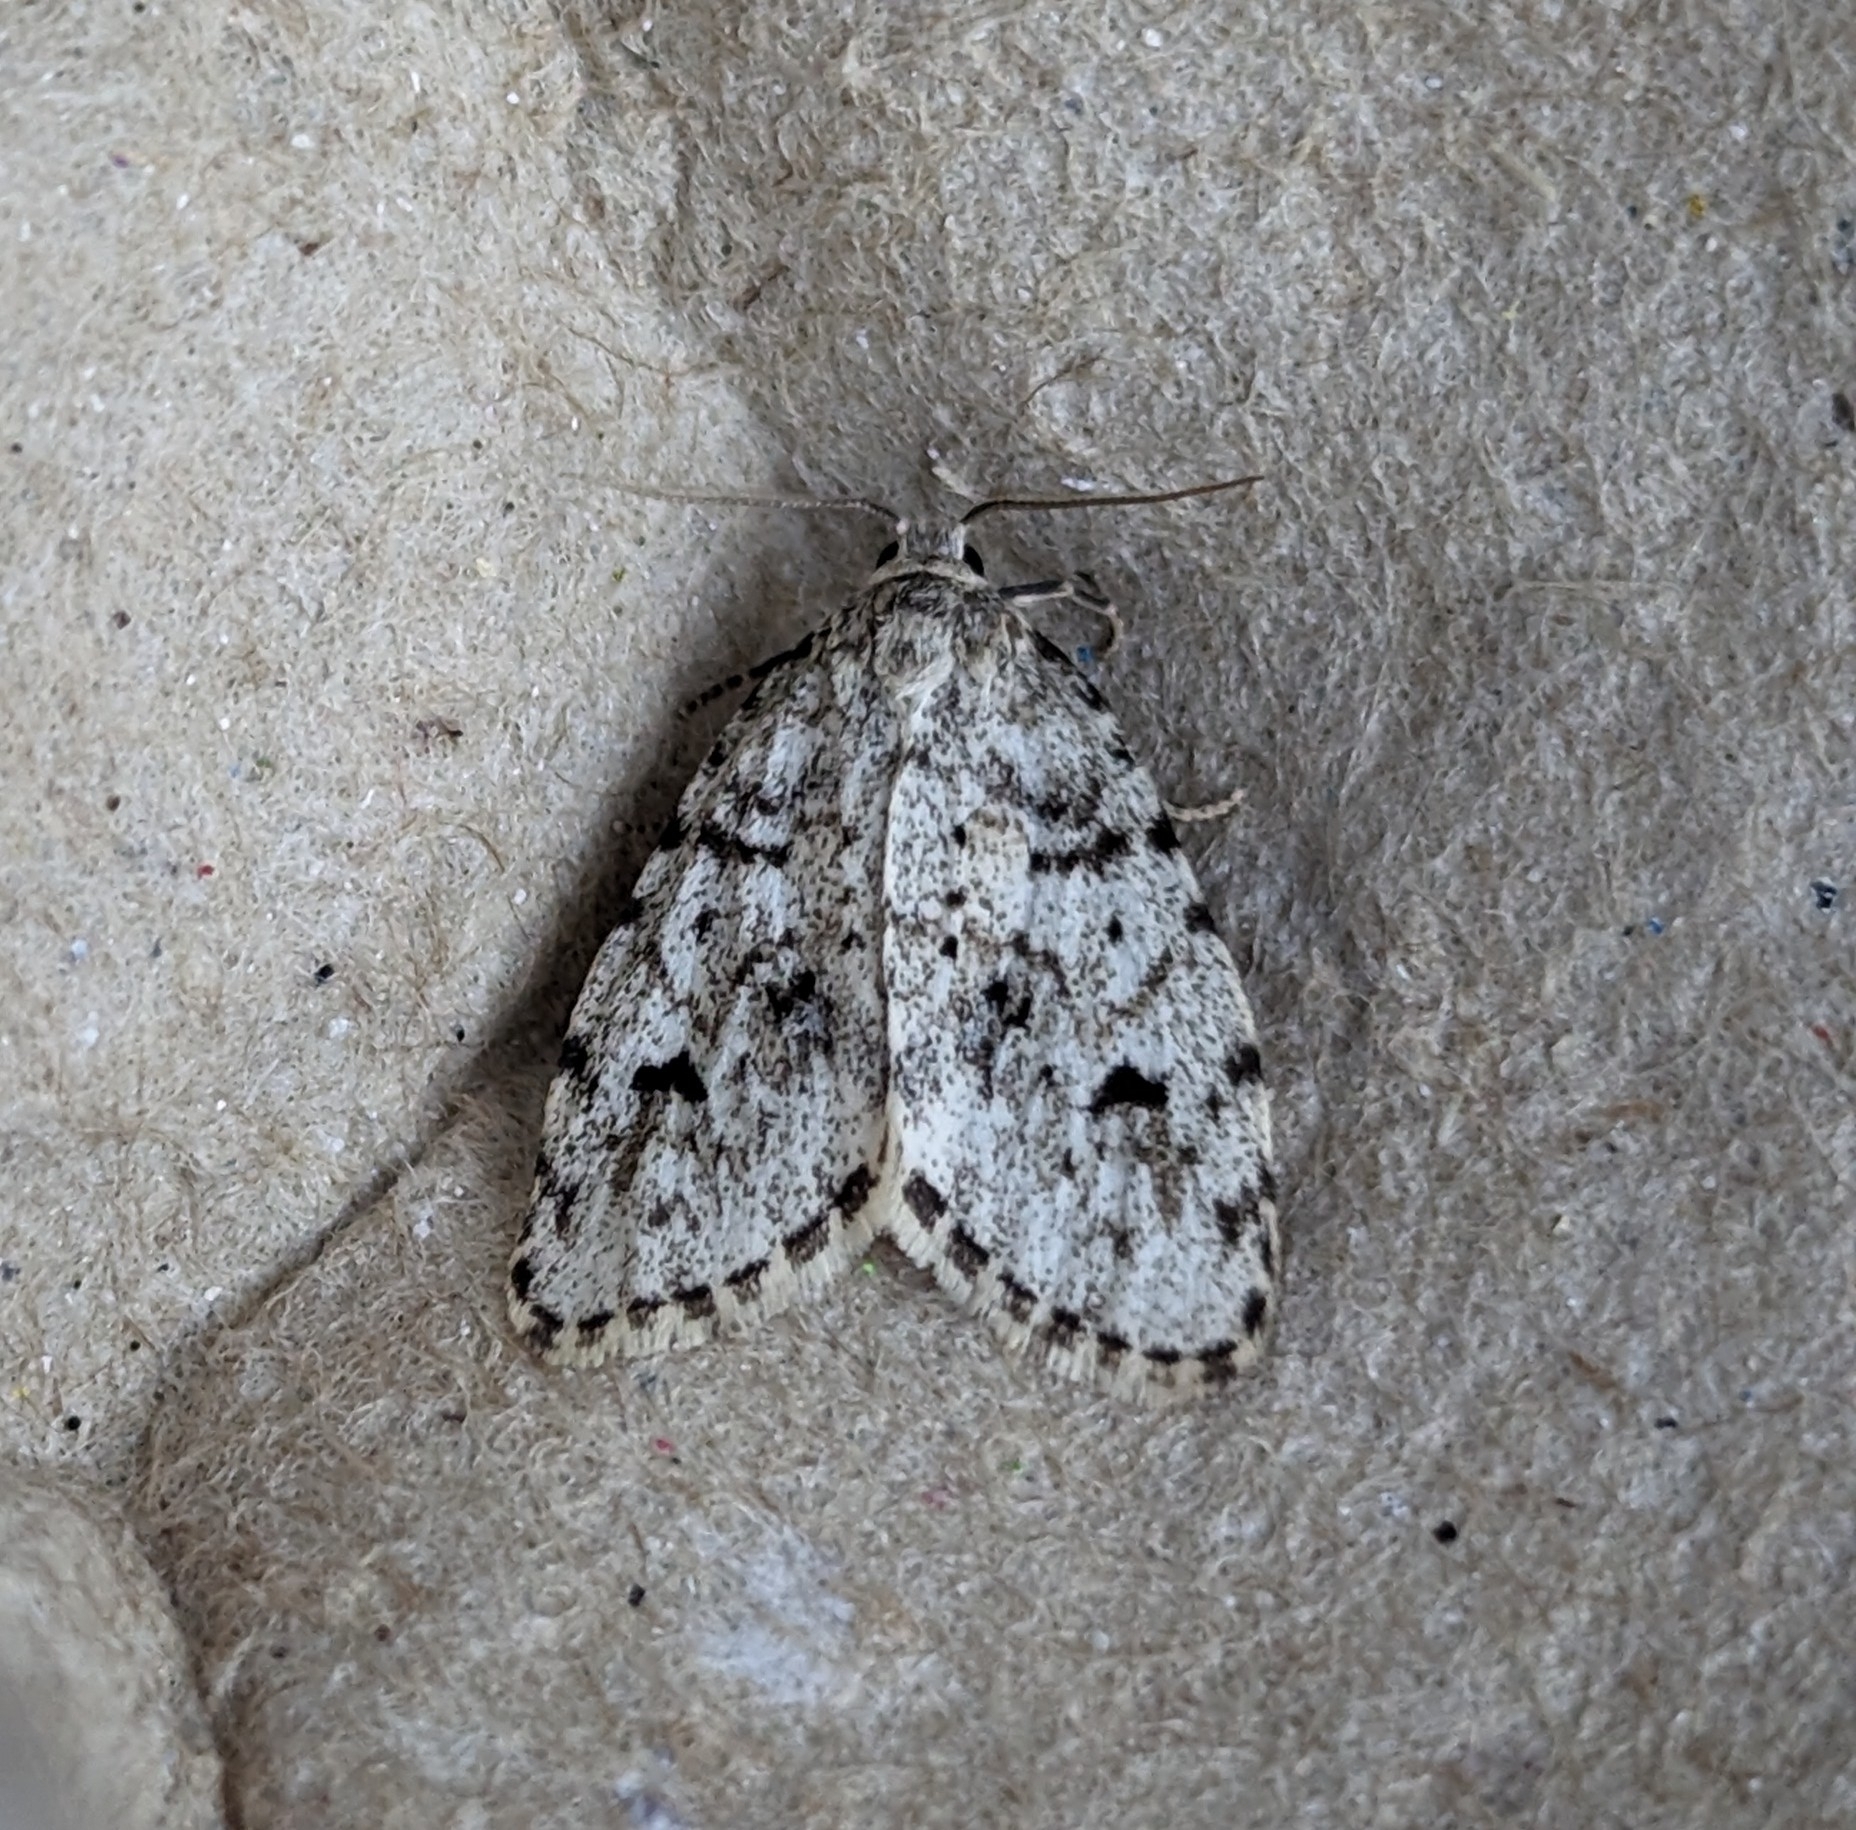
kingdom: Animalia
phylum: Arthropoda
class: Insecta
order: Lepidoptera
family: Erebidae
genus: Clemensia
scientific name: Clemensia umbrata
